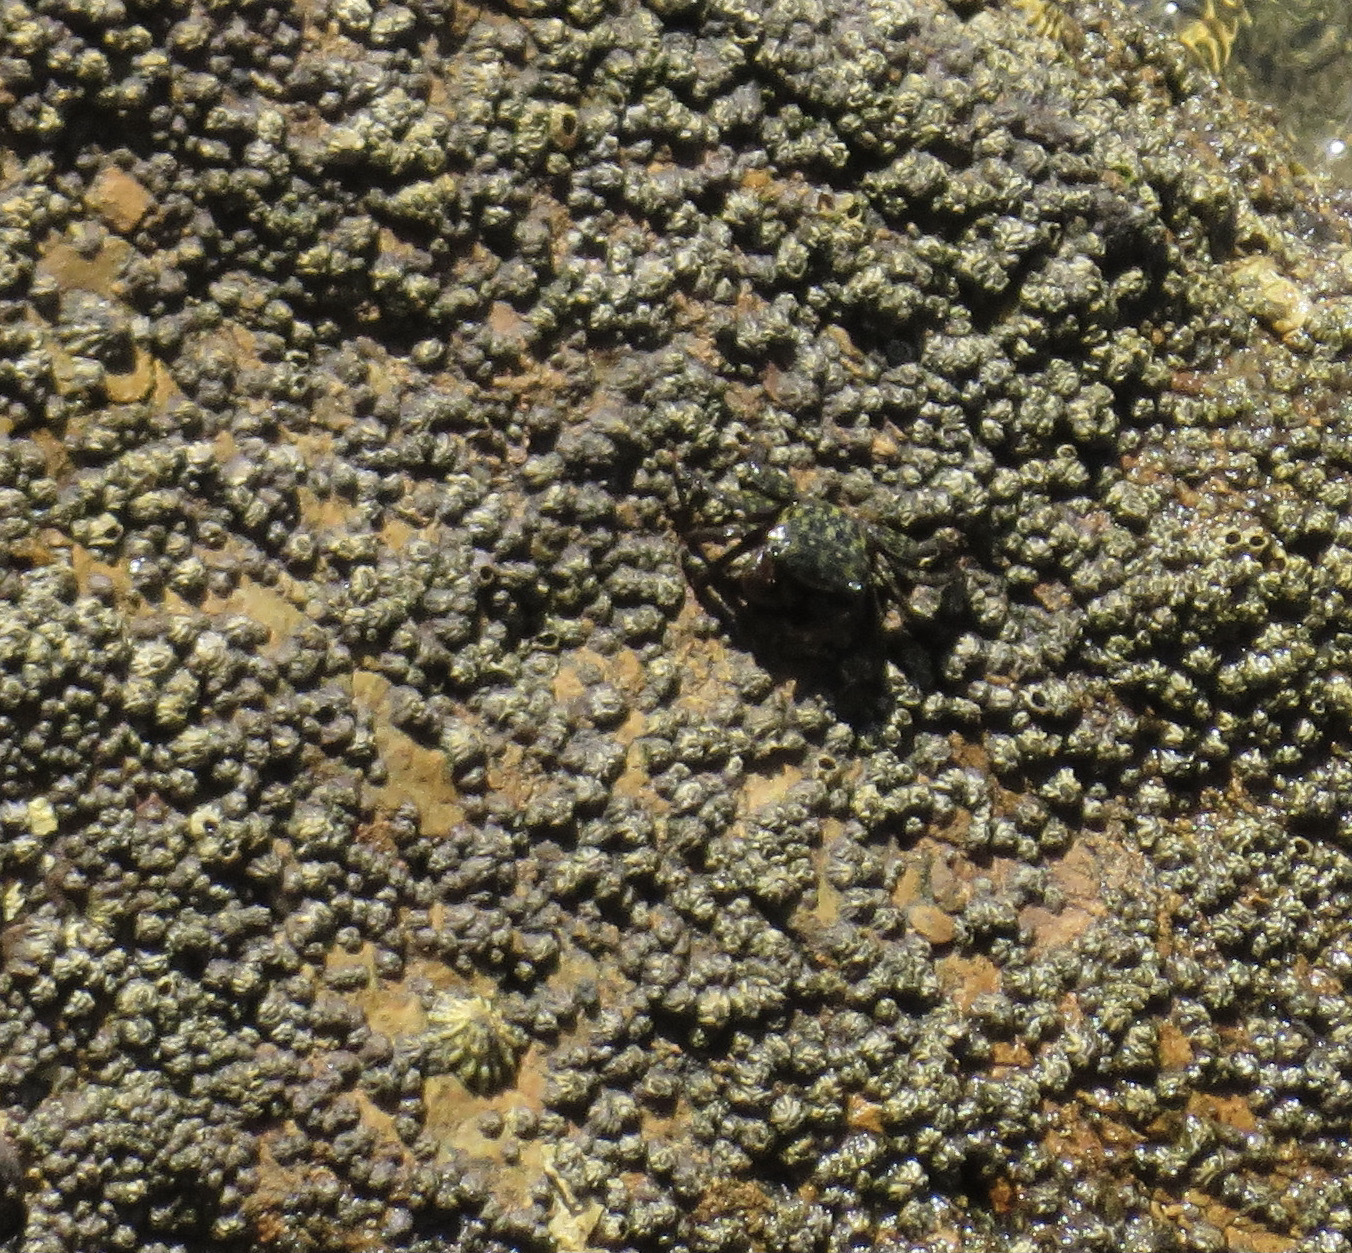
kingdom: Animalia
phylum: Arthropoda
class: Malacostraca
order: Decapoda
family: Grapsidae
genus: Pachygrapsus
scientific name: Pachygrapsus crassipes
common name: Striped shore crab
